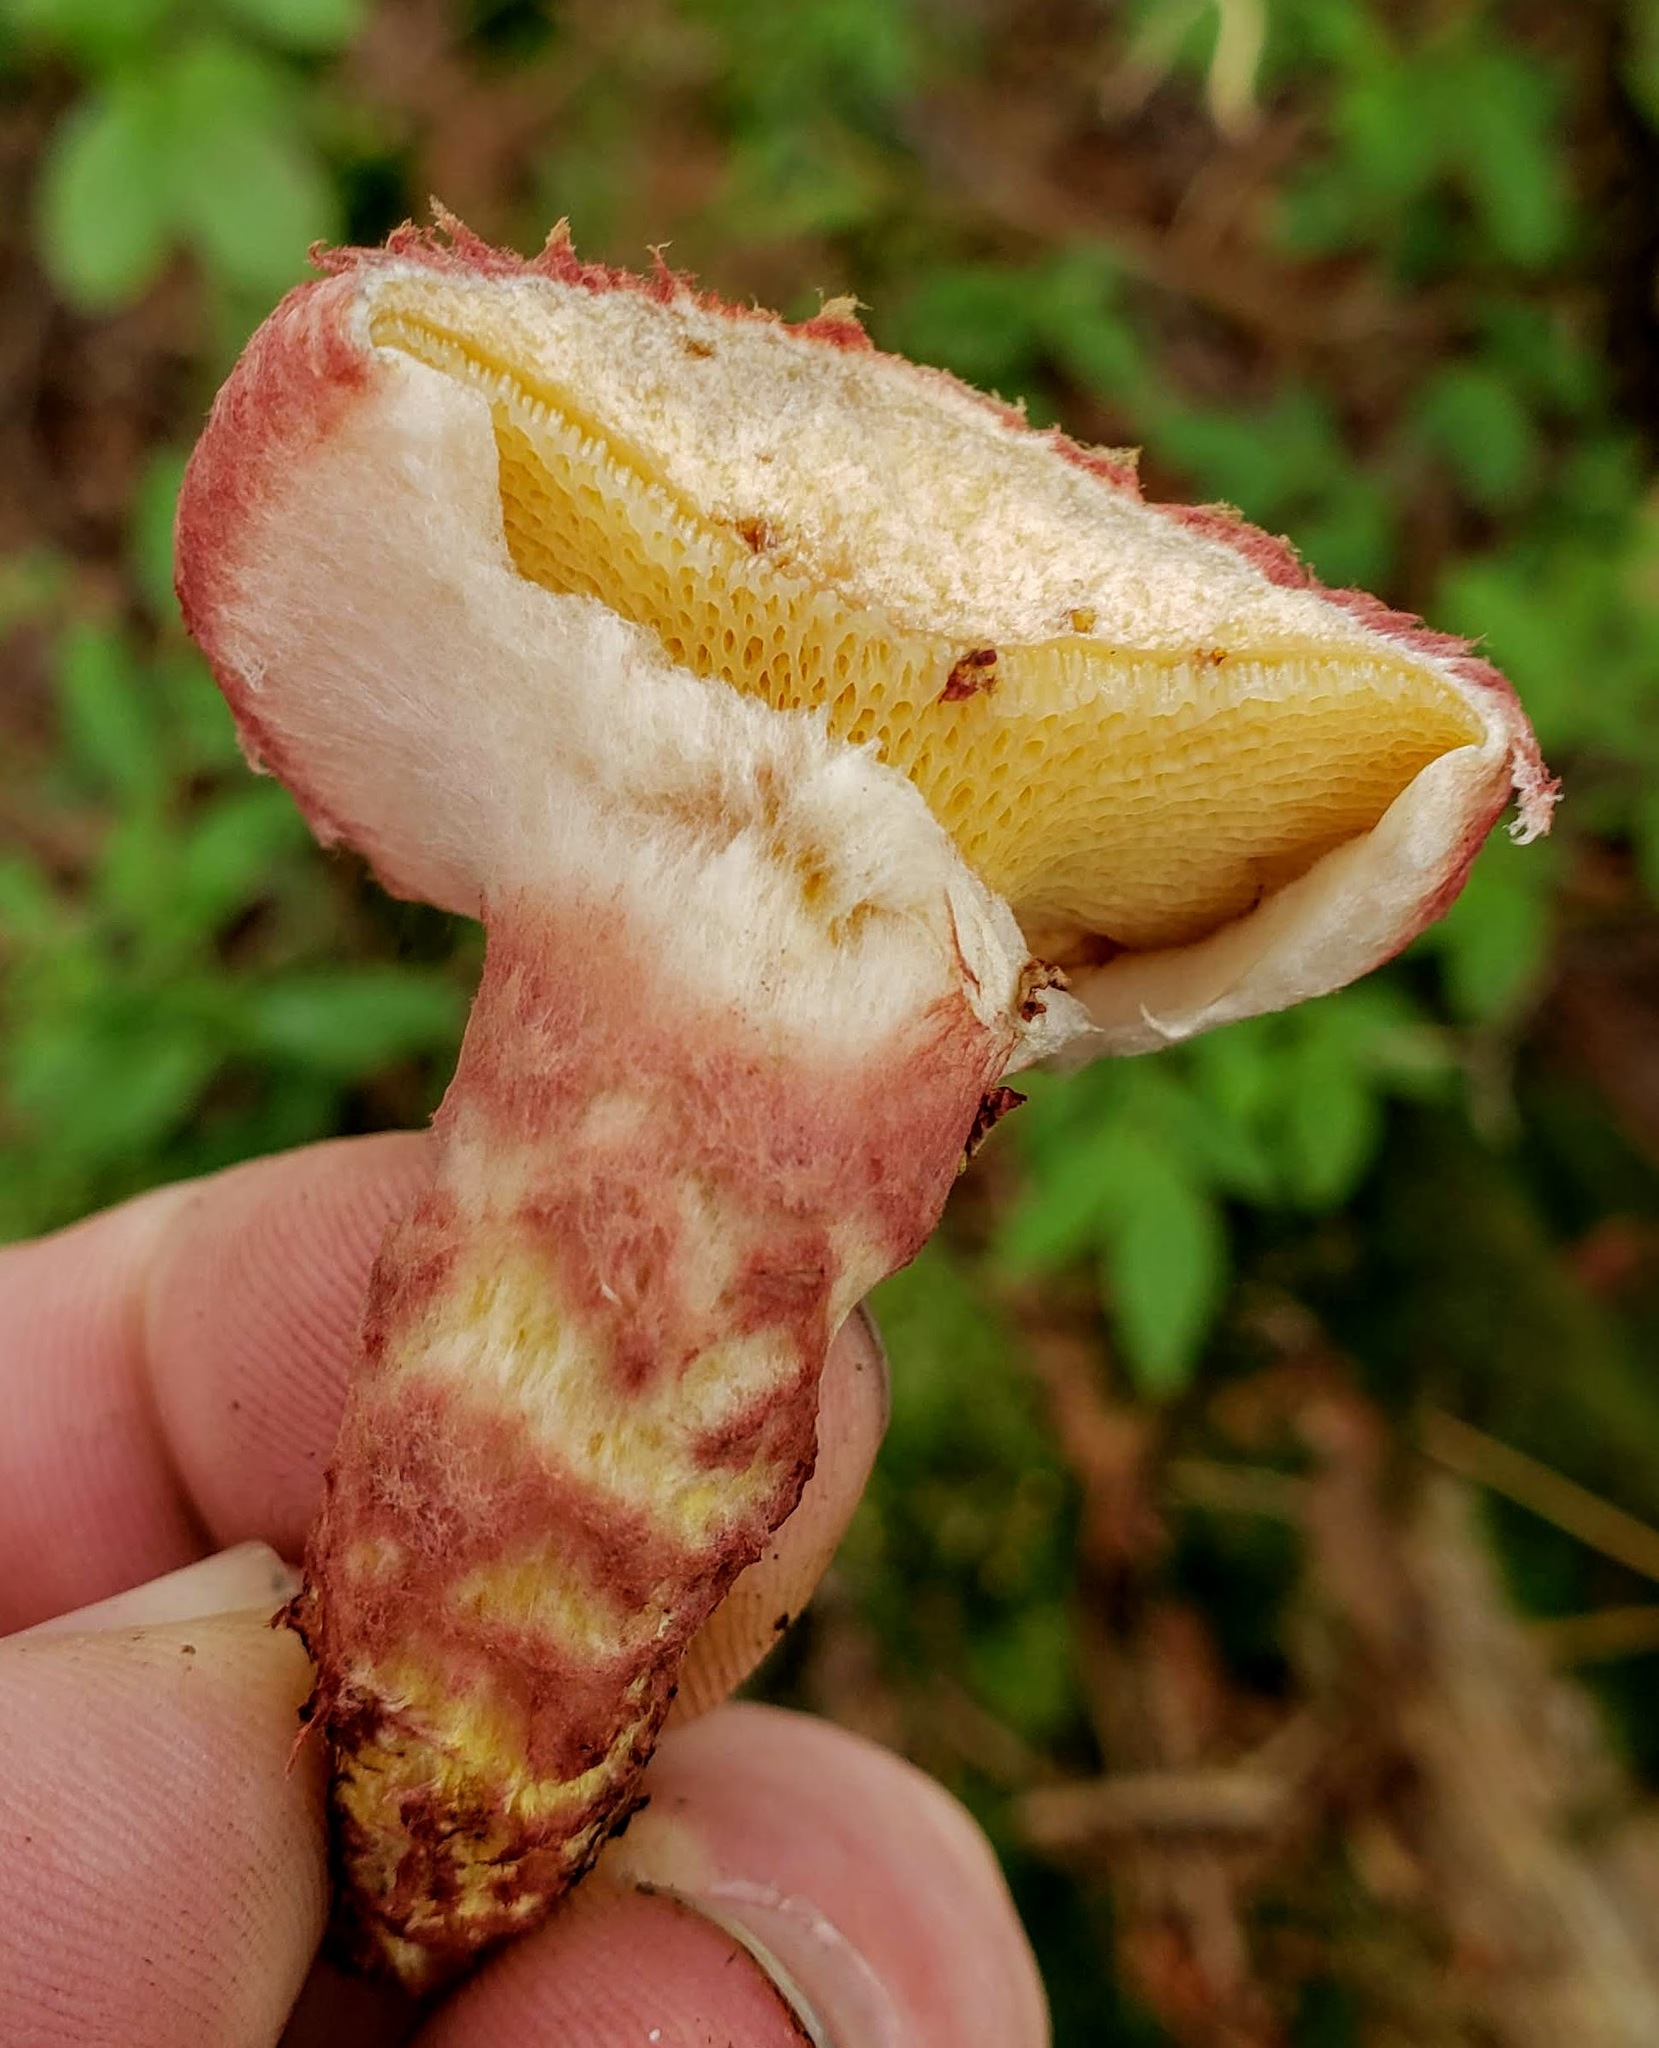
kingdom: Fungi
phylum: Basidiomycota
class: Agaricomycetes
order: Boletales
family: Suillaceae
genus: Suillus
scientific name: Suillus spraguei
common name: Painted suillus
